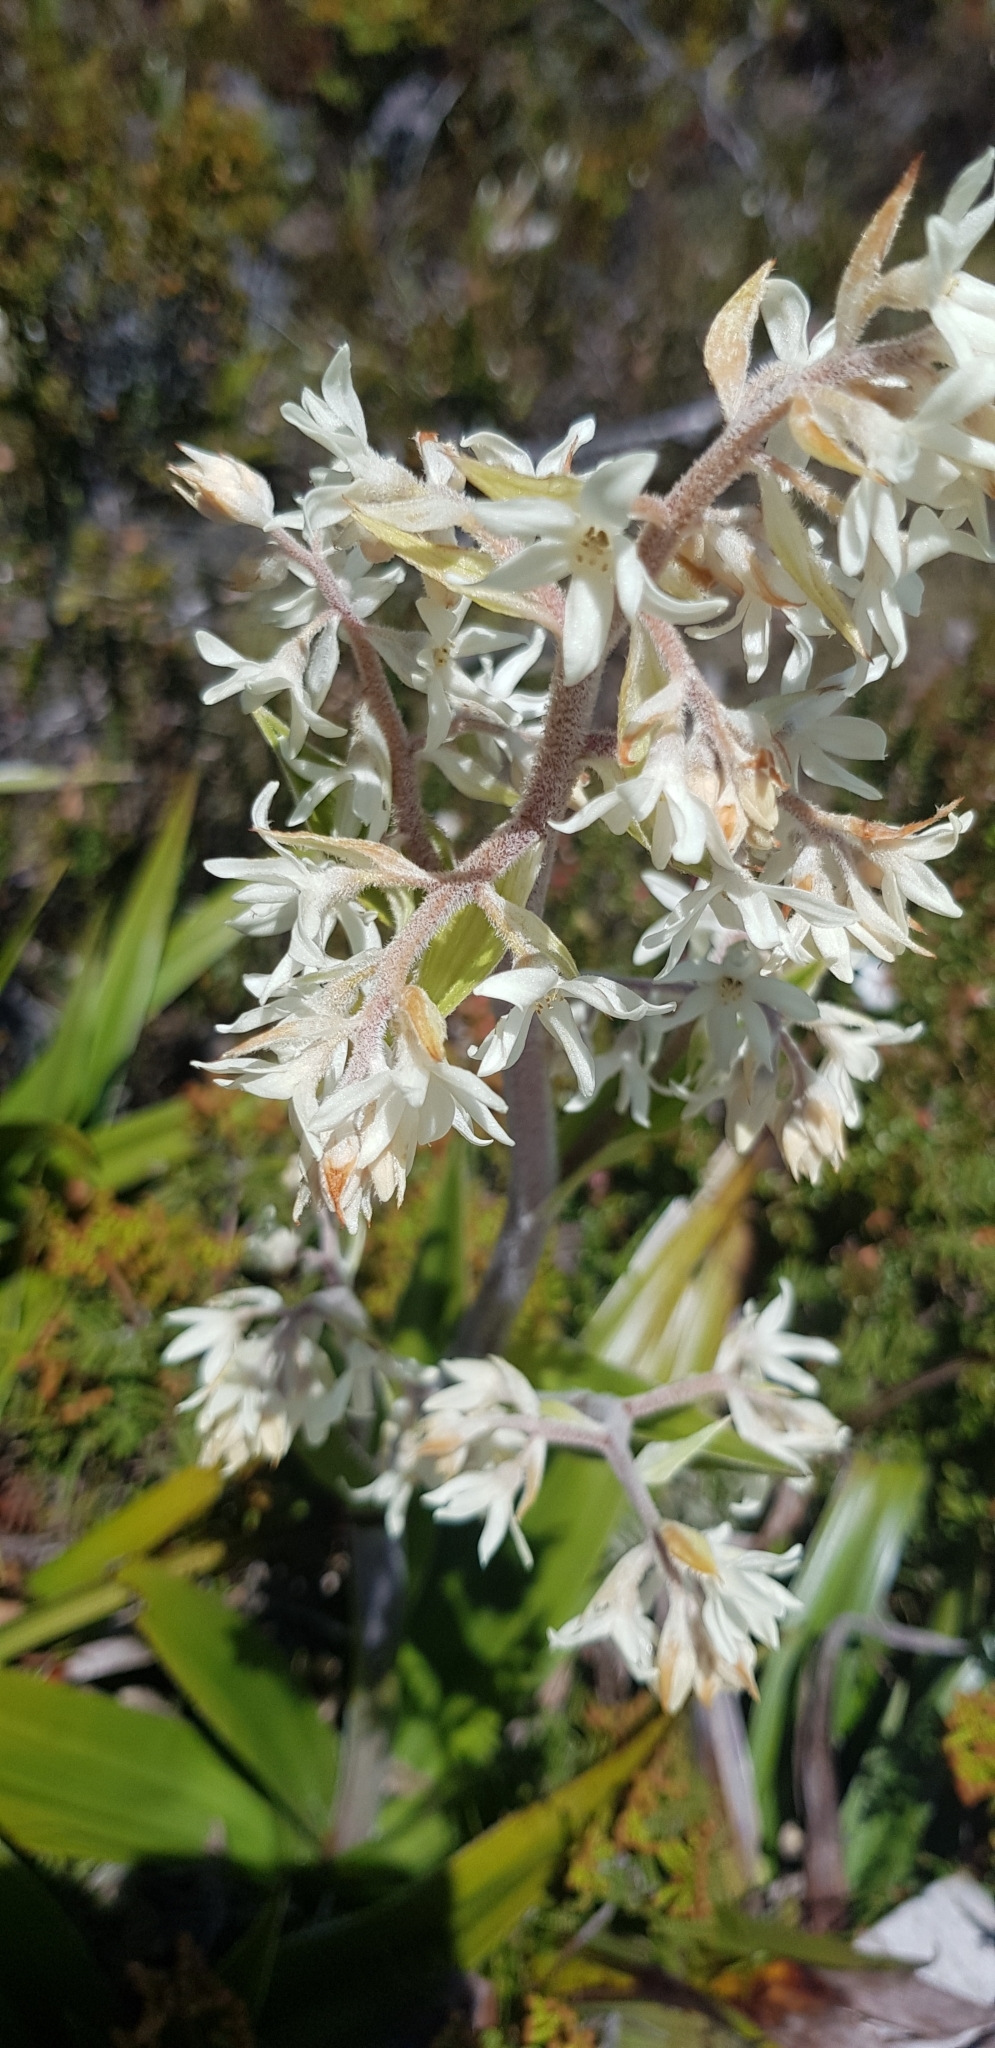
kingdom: Plantae
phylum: Tracheophyta
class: Liliopsida
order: Asparagales
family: Asteliaceae
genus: Milligania
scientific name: Milligania densiflora
